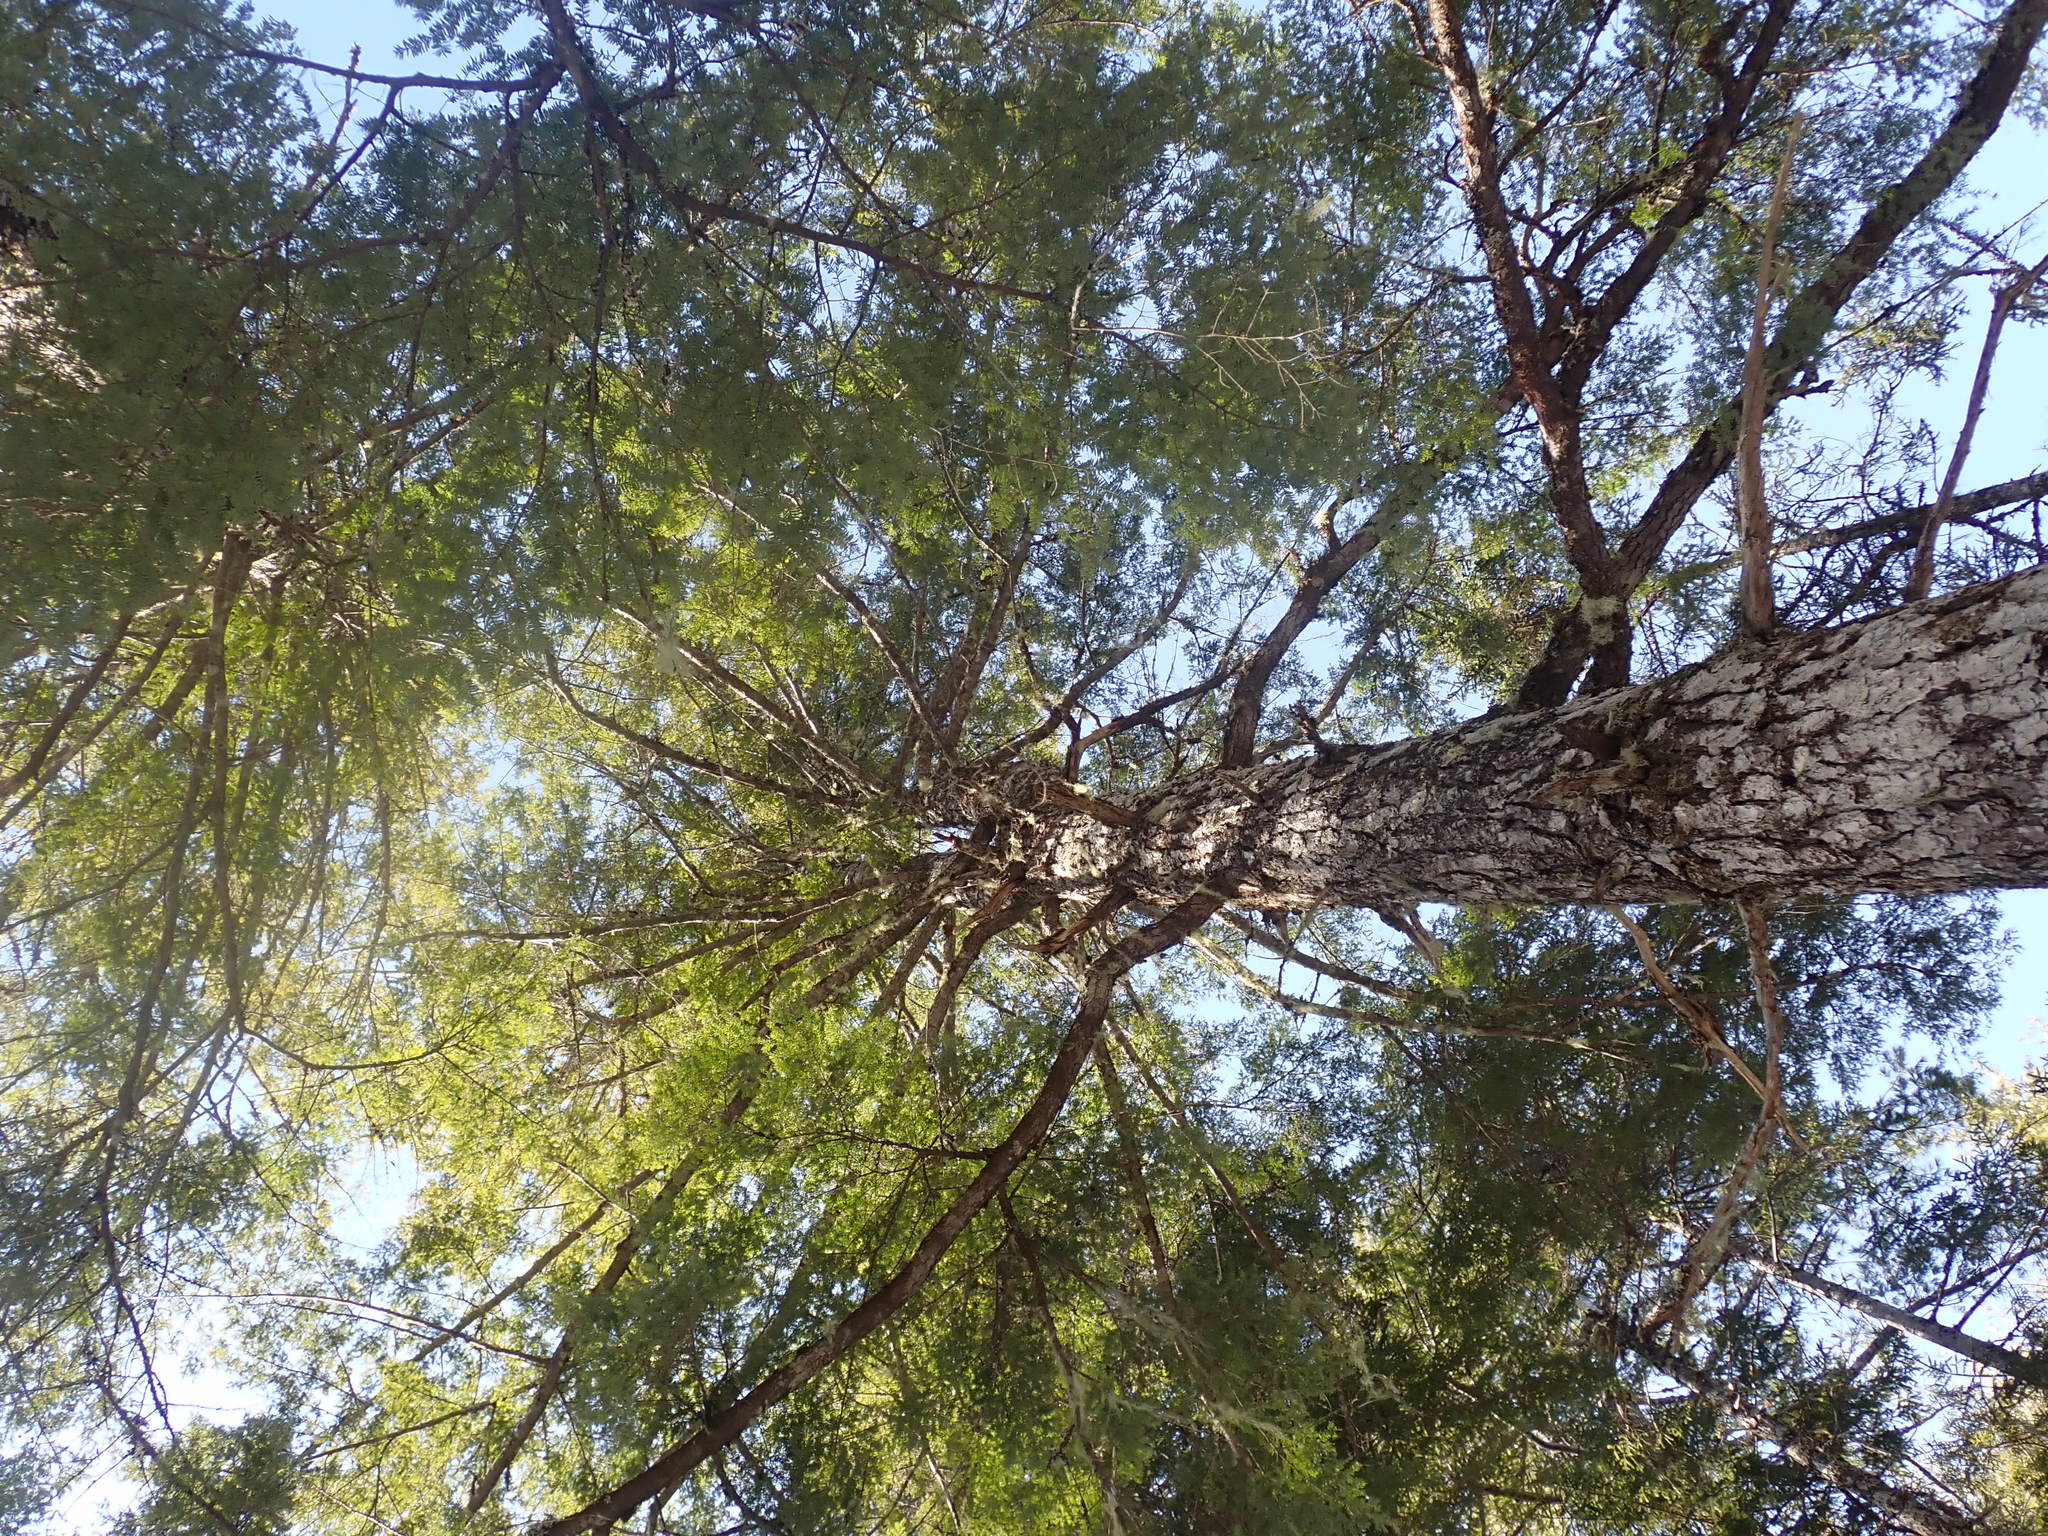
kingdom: Plantae
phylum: Tracheophyta
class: Pinopsida
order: Pinales
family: Pinaceae
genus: Tsuga
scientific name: Tsuga canadensis
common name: Eastern hemlock
